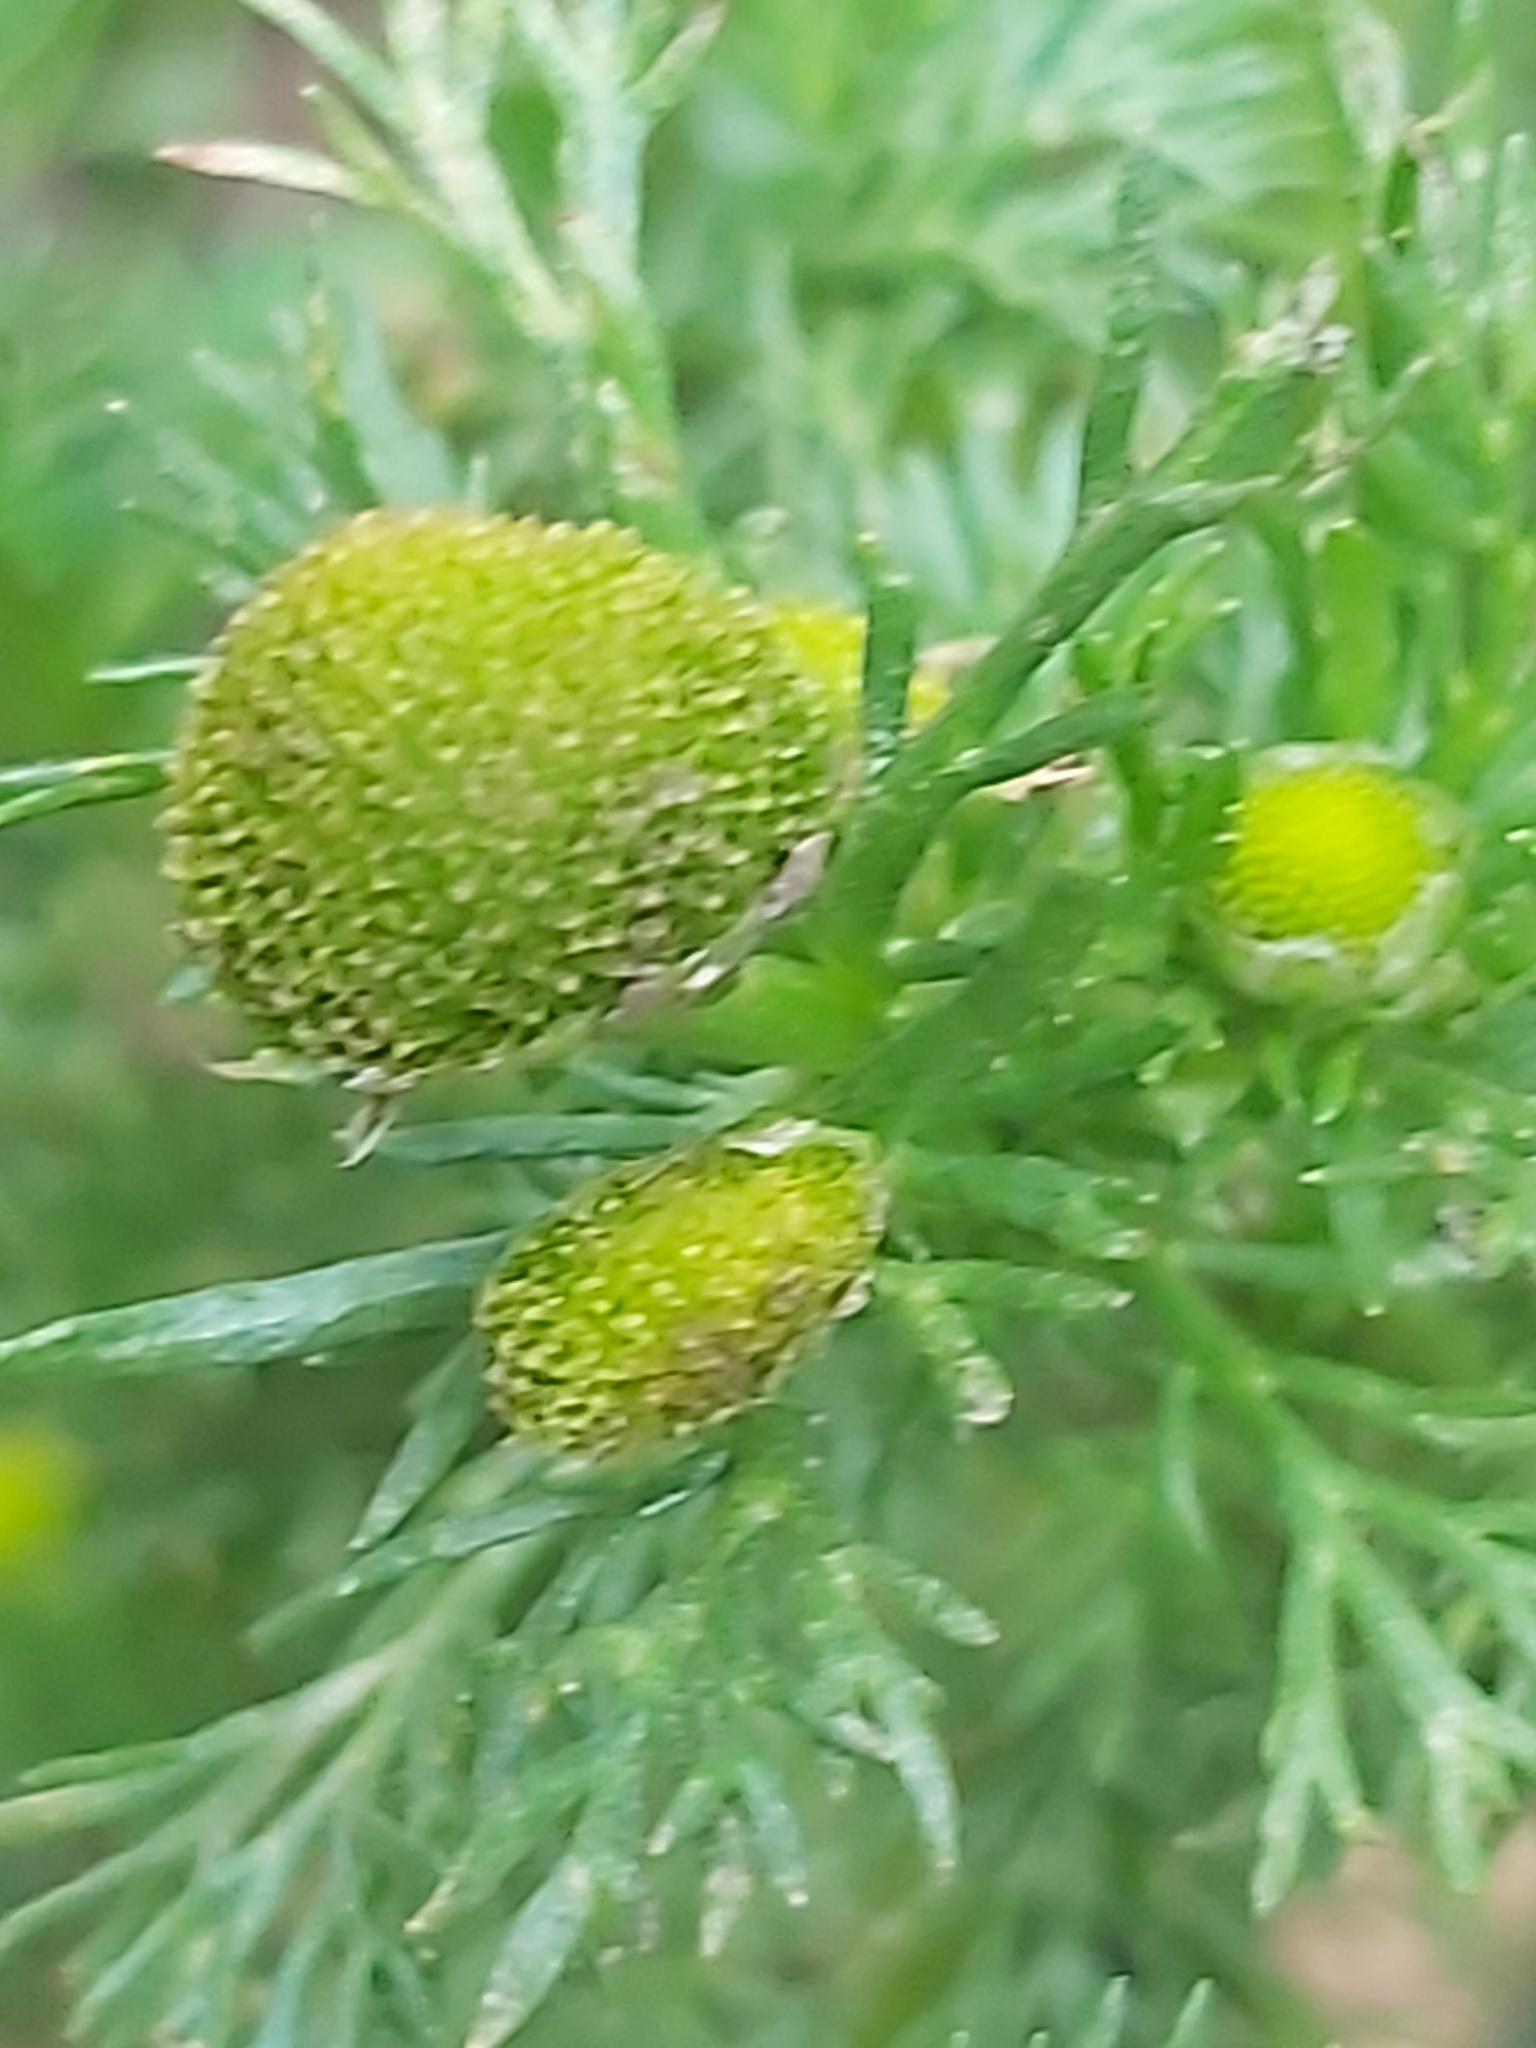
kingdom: Plantae
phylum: Tracheophyta
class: Magnoliopsida
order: Asterales
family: Asteraceae
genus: Matricaria
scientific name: Matricaria discoidea
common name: Disc mayweed
